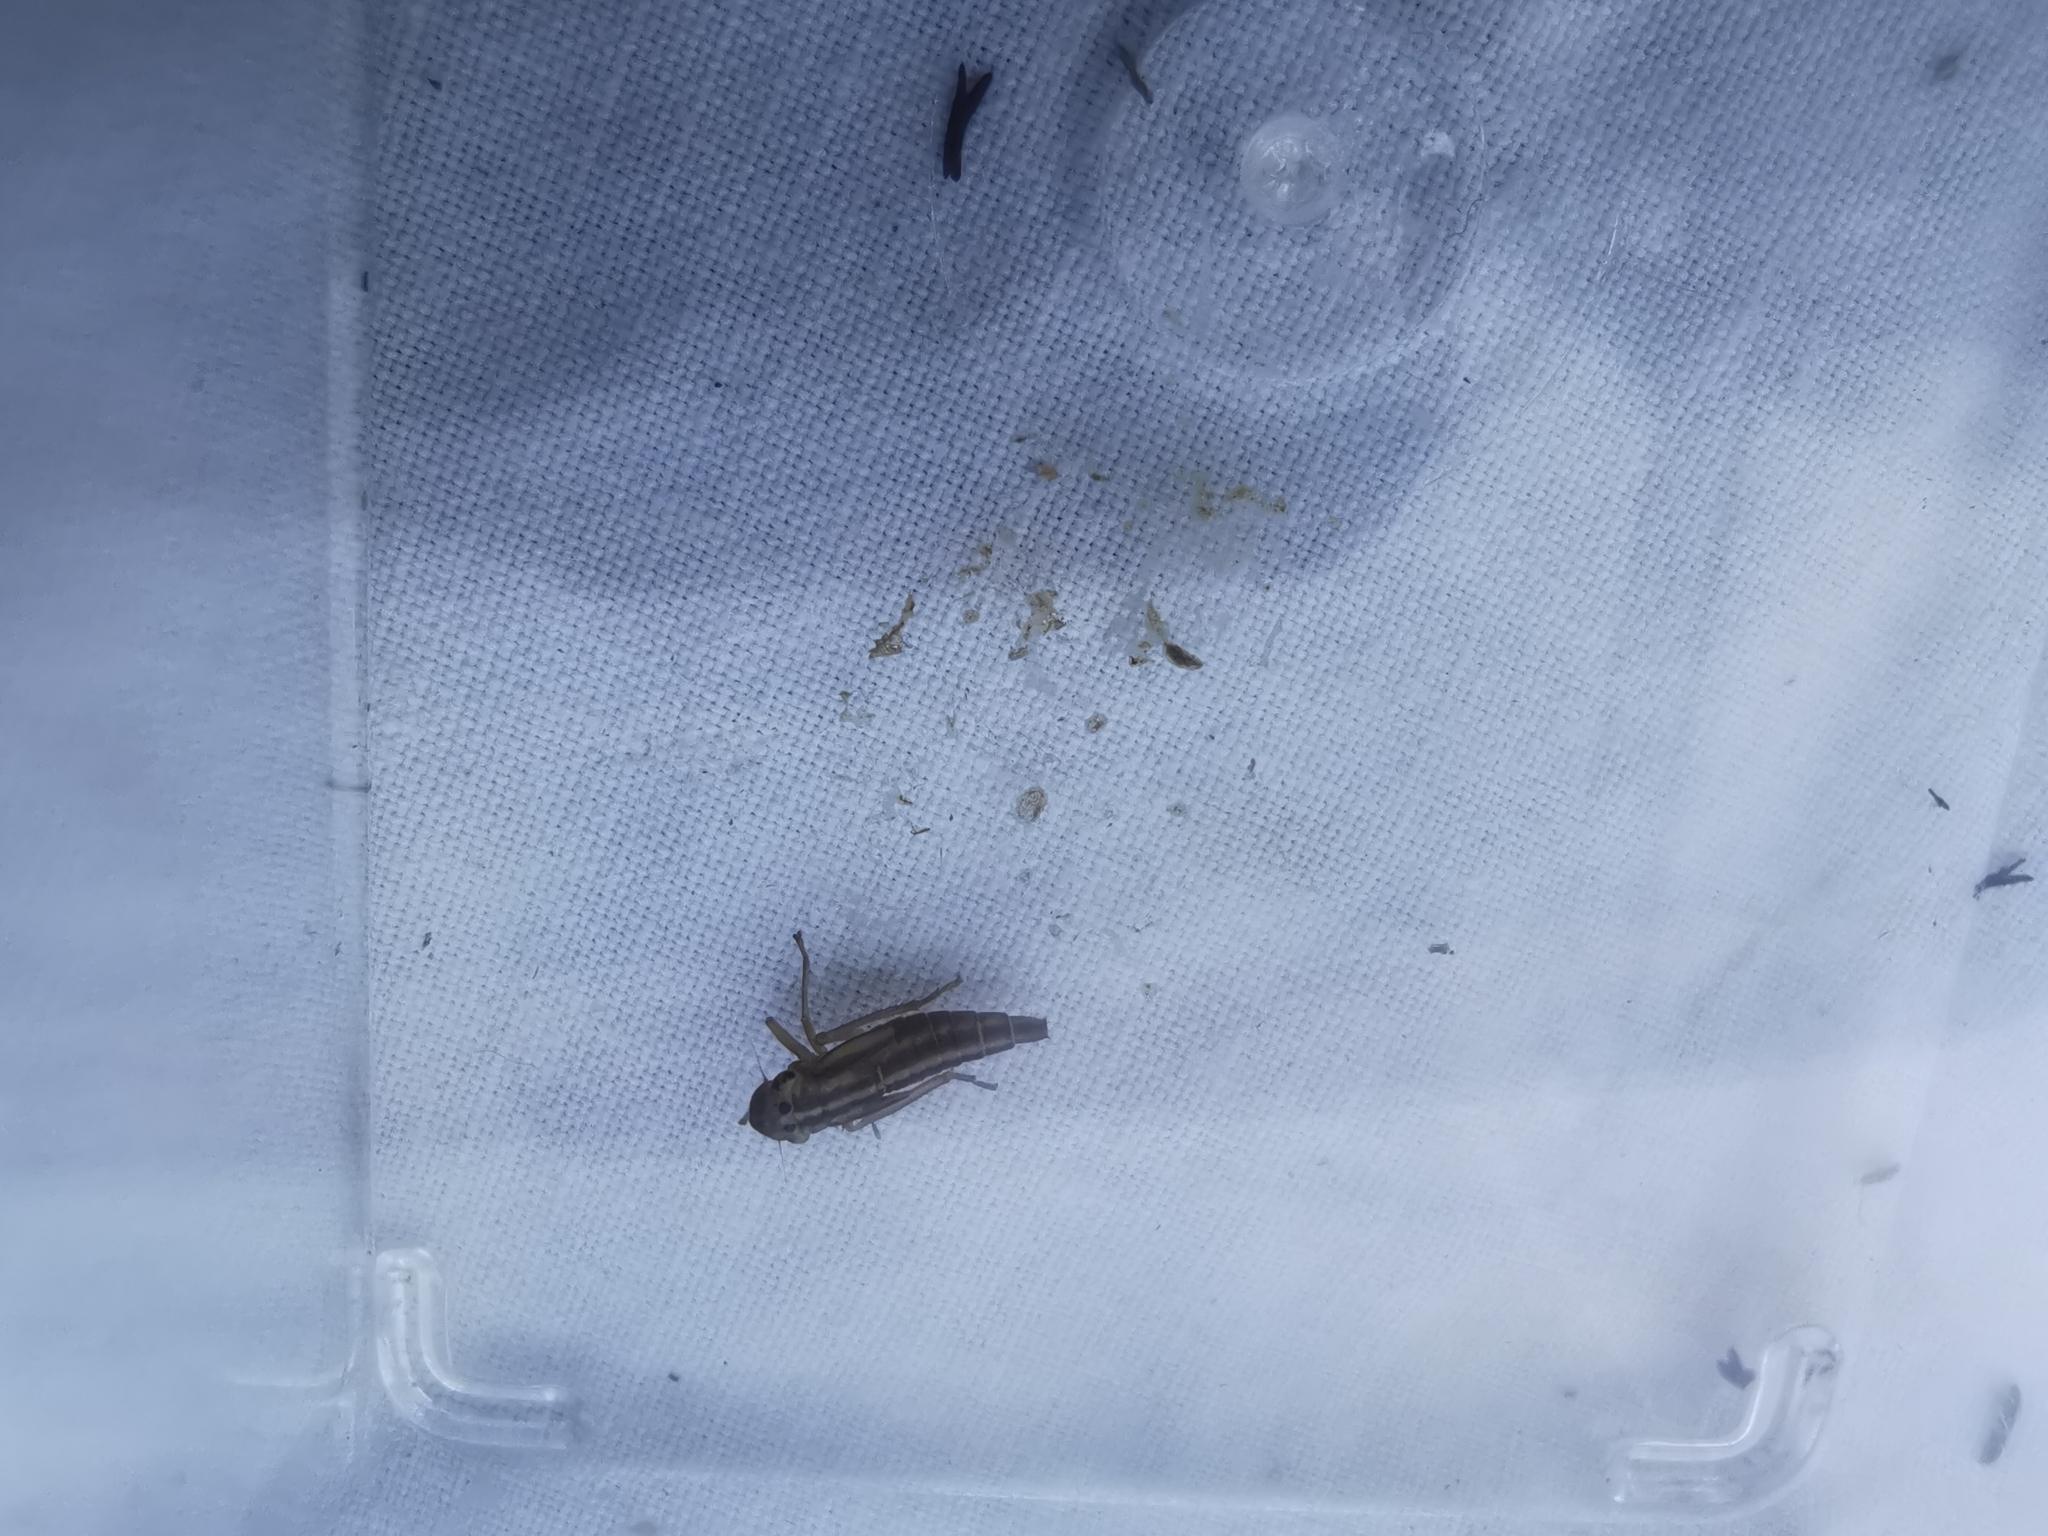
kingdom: Animalia
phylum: Arthropoda
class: Insecta
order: Hemiptera
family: Cicadellidae
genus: Cicadella
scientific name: Cicadella viridis
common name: Leafhopper
